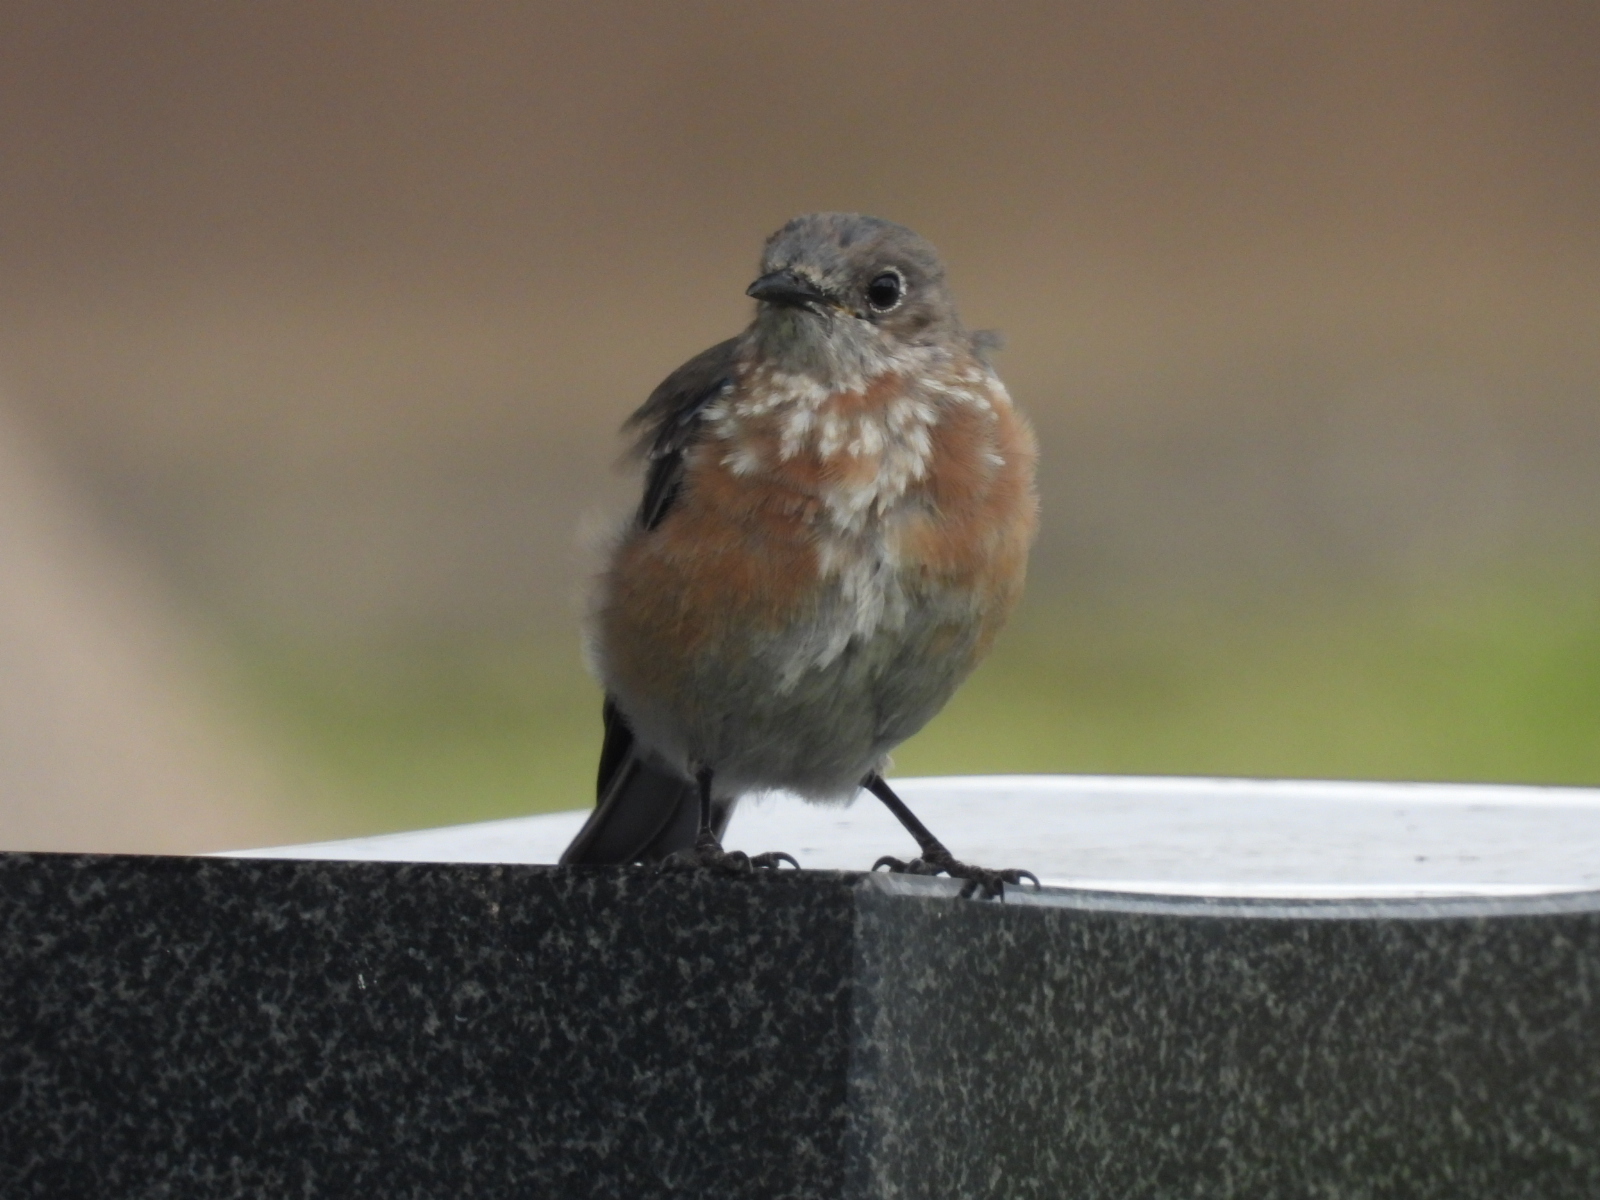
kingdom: Animalia
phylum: Chordata
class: Aves
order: Passeriformes
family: Turdidae
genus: Sialia
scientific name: Sialia mexicana
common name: Western bluebird
